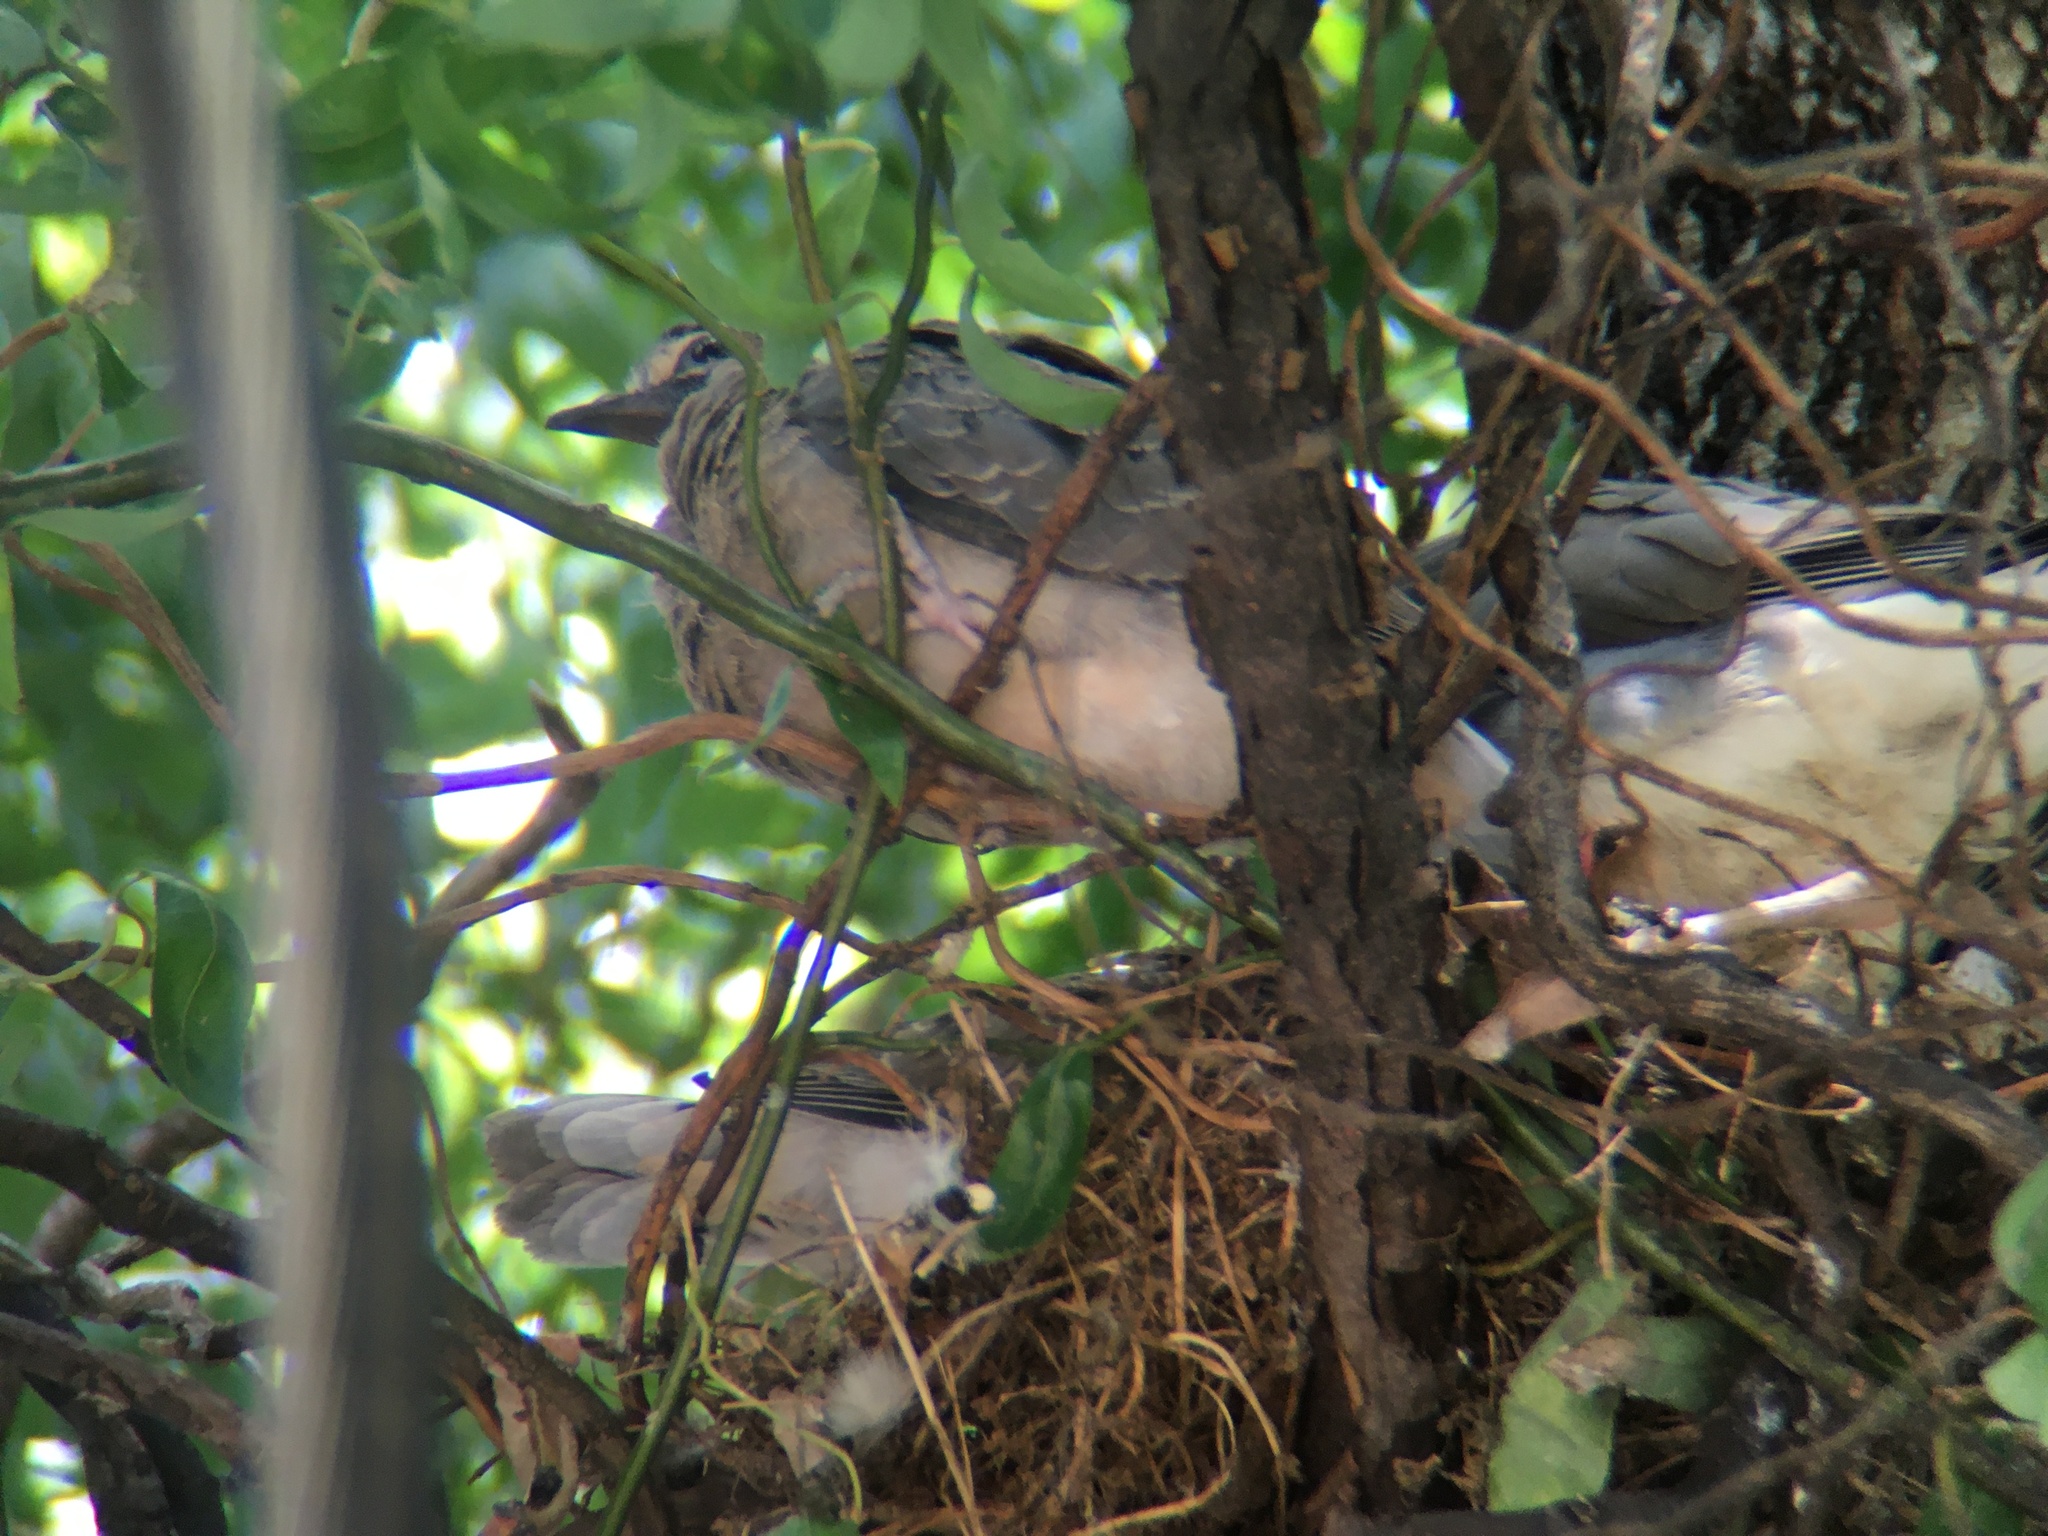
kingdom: Animalia
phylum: Chordata
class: Aves
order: Columbiformes
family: Columbidae
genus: Zenaida
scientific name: Zenaida macroura
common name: Mourning dove
